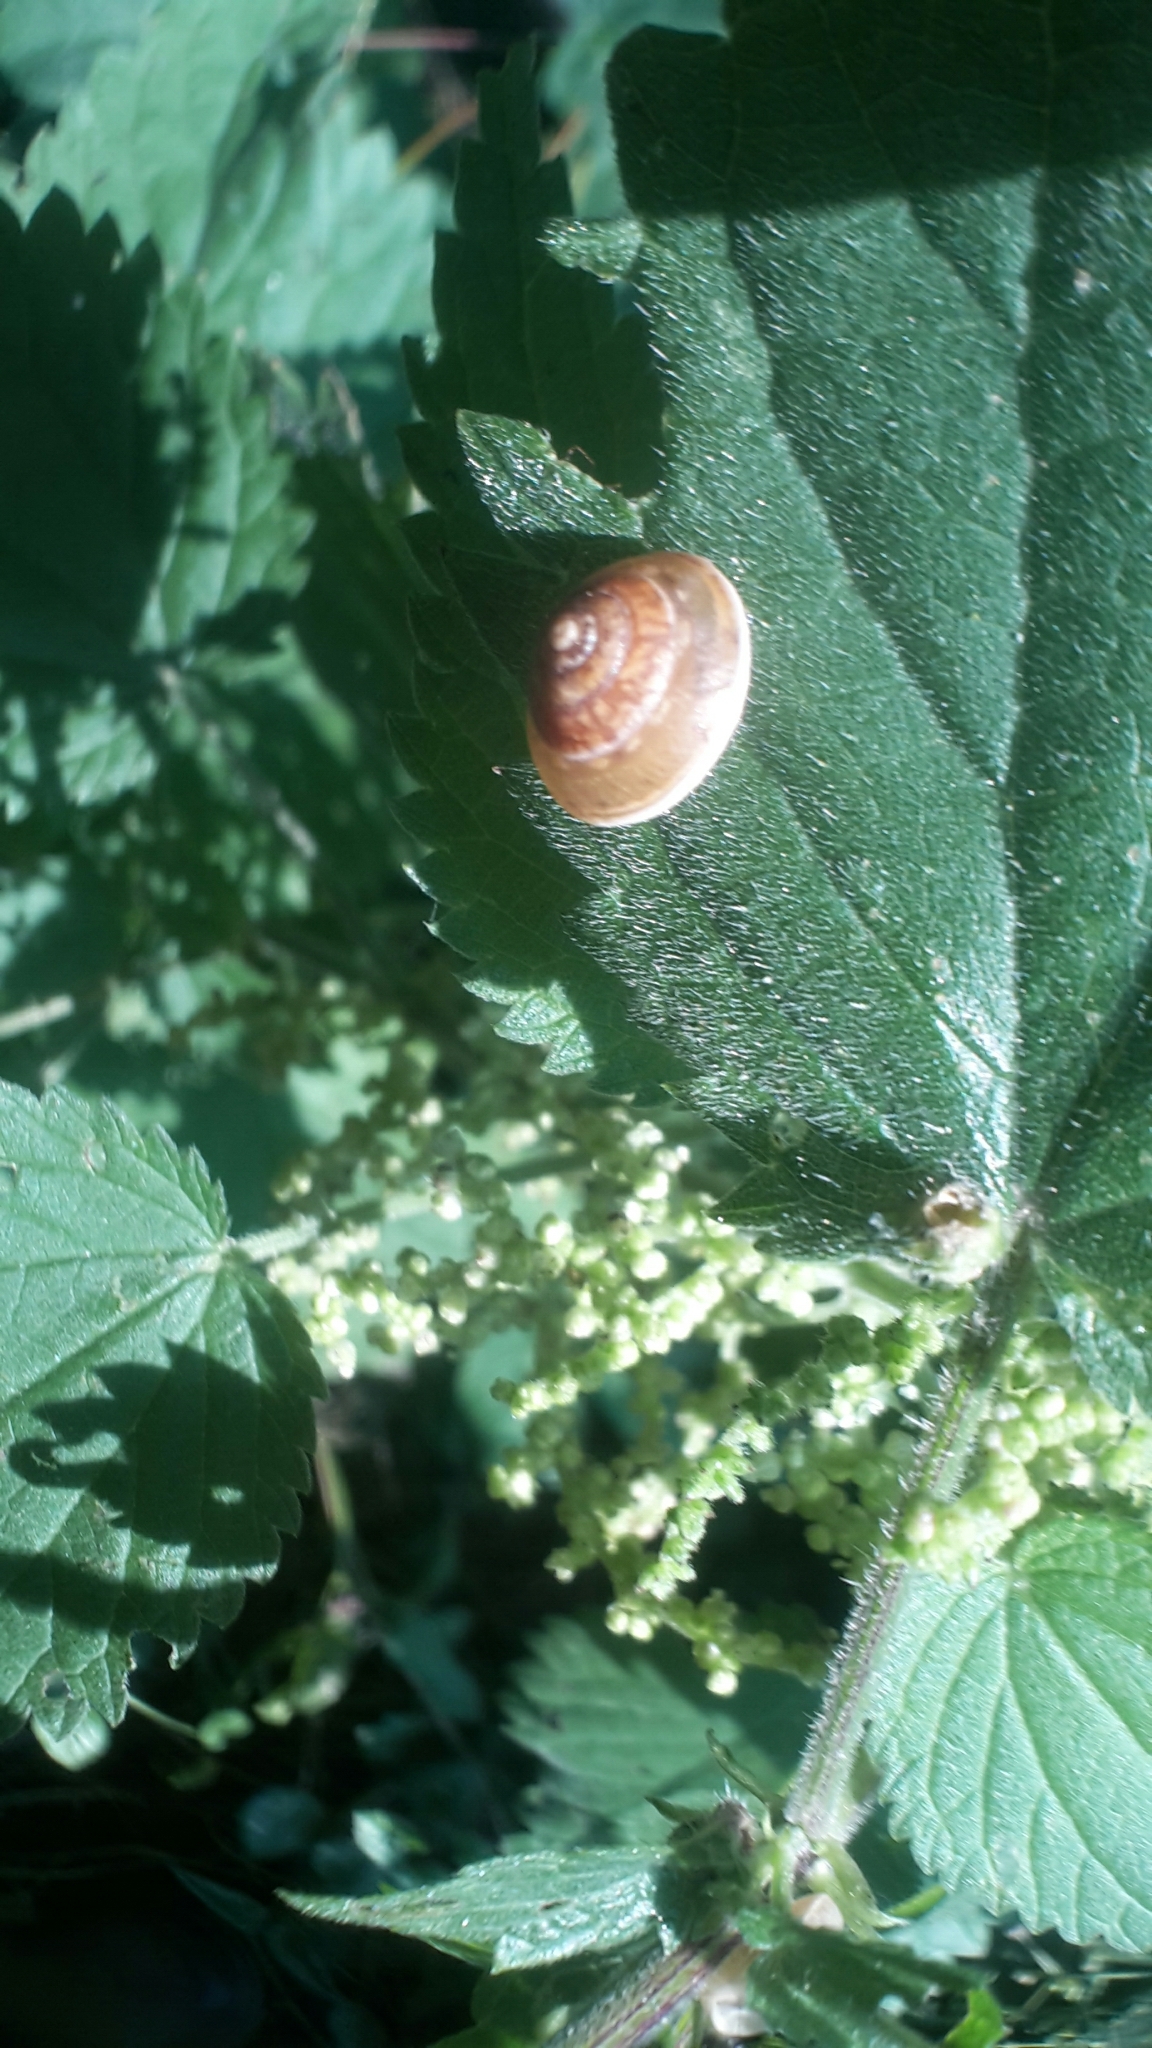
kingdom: Animalia
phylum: Mollusca
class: Gastropoda
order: Stylommatophora
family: Hygromiidae
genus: Hygromia
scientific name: Hygromia cinctella
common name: Girdled snail
